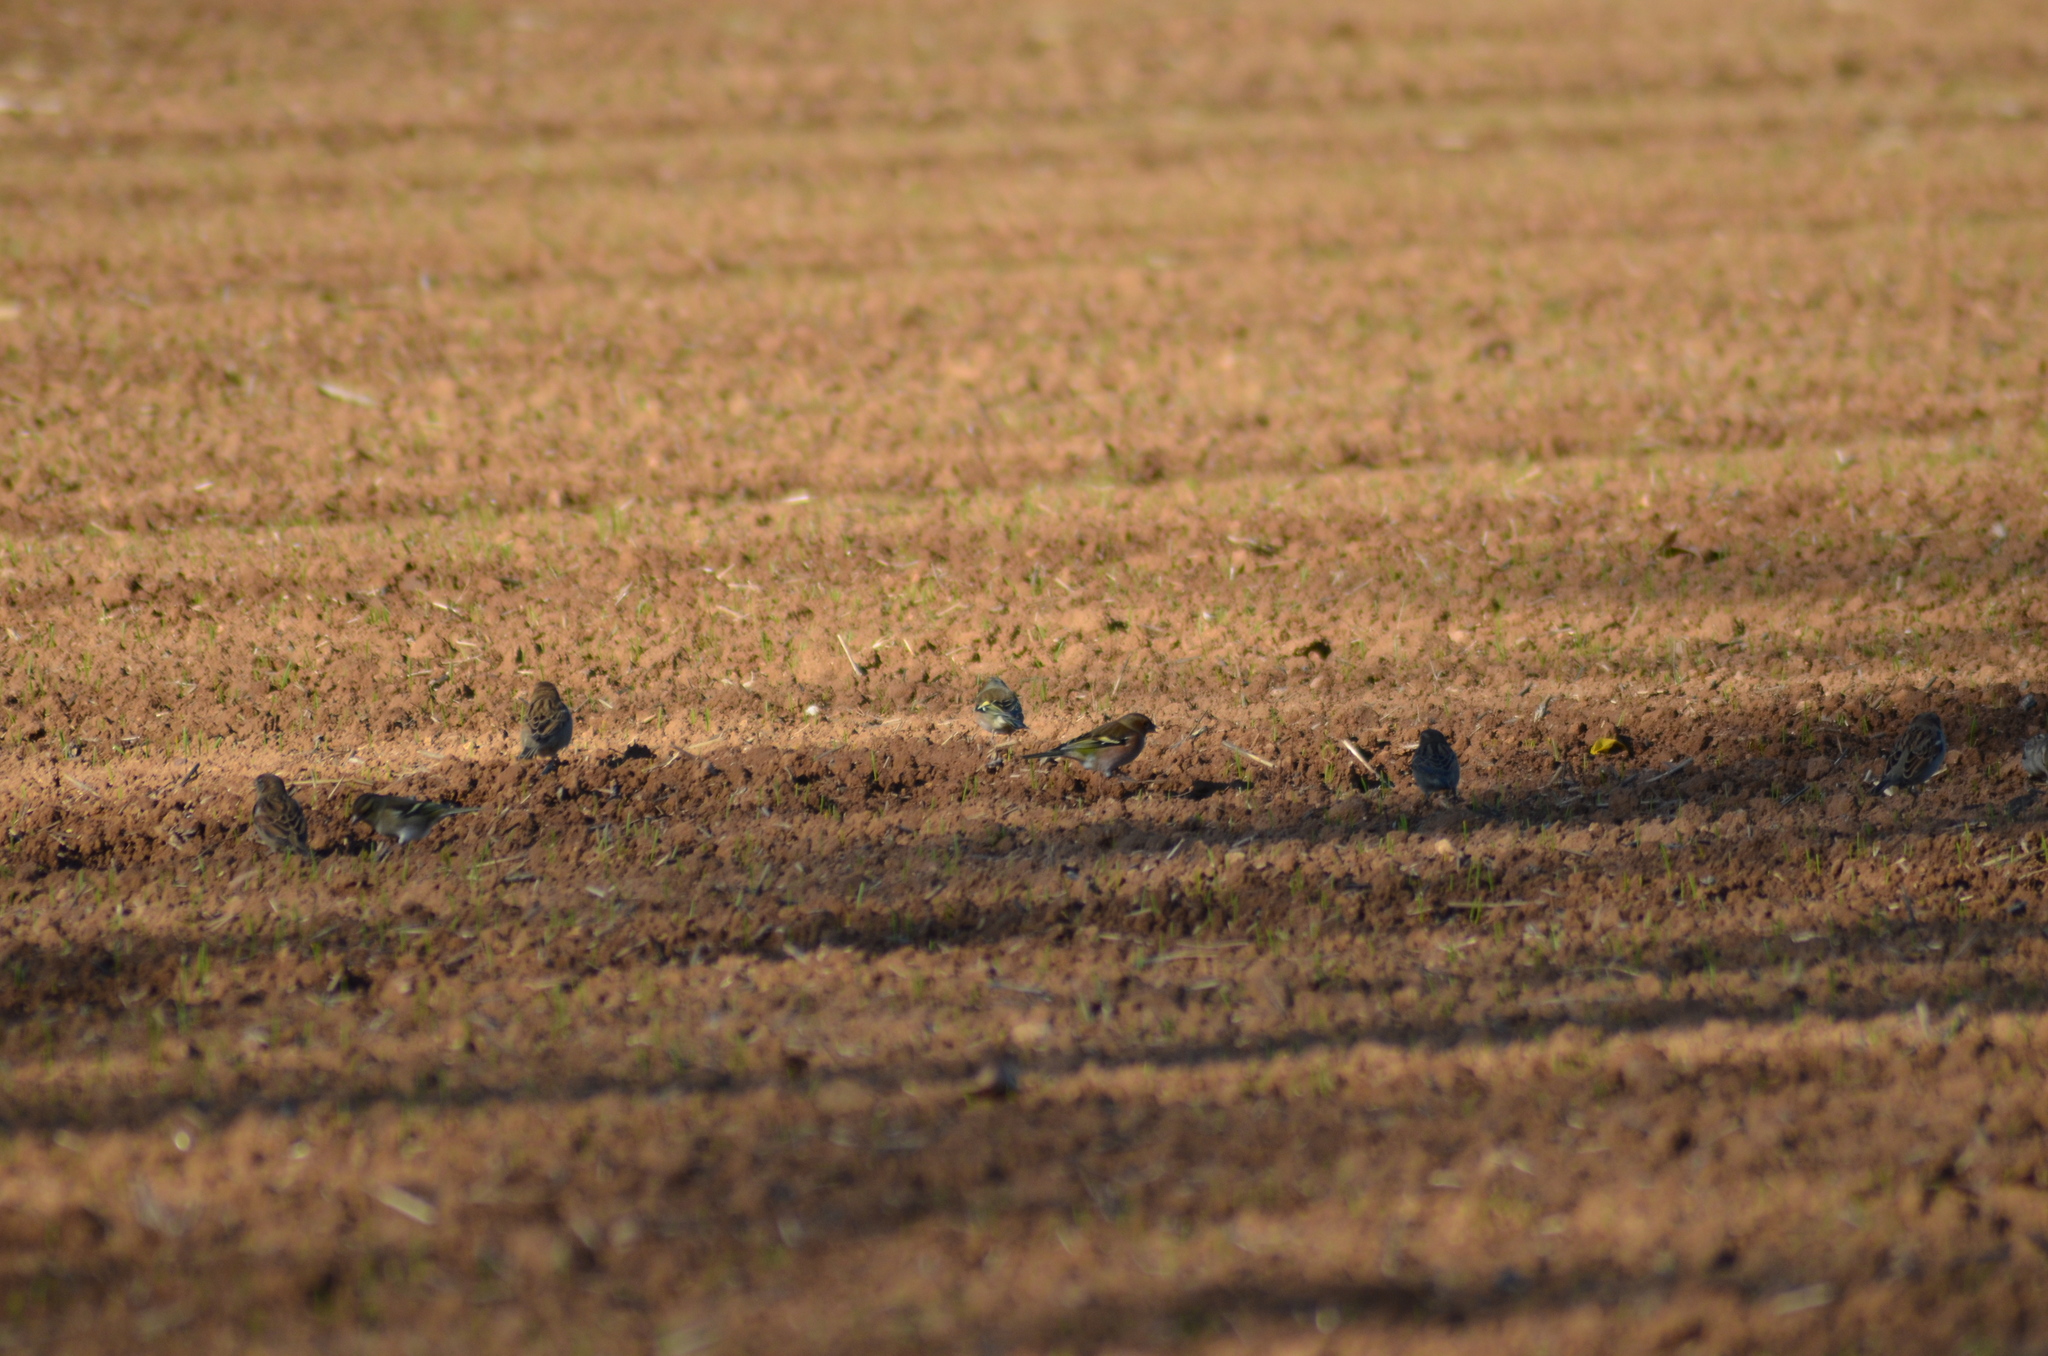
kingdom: Animalia
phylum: Chordata
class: Aves
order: Passeriformes
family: Fringillidae
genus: Fringilla
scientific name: Fringilla coelebs
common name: Common chaffinch
